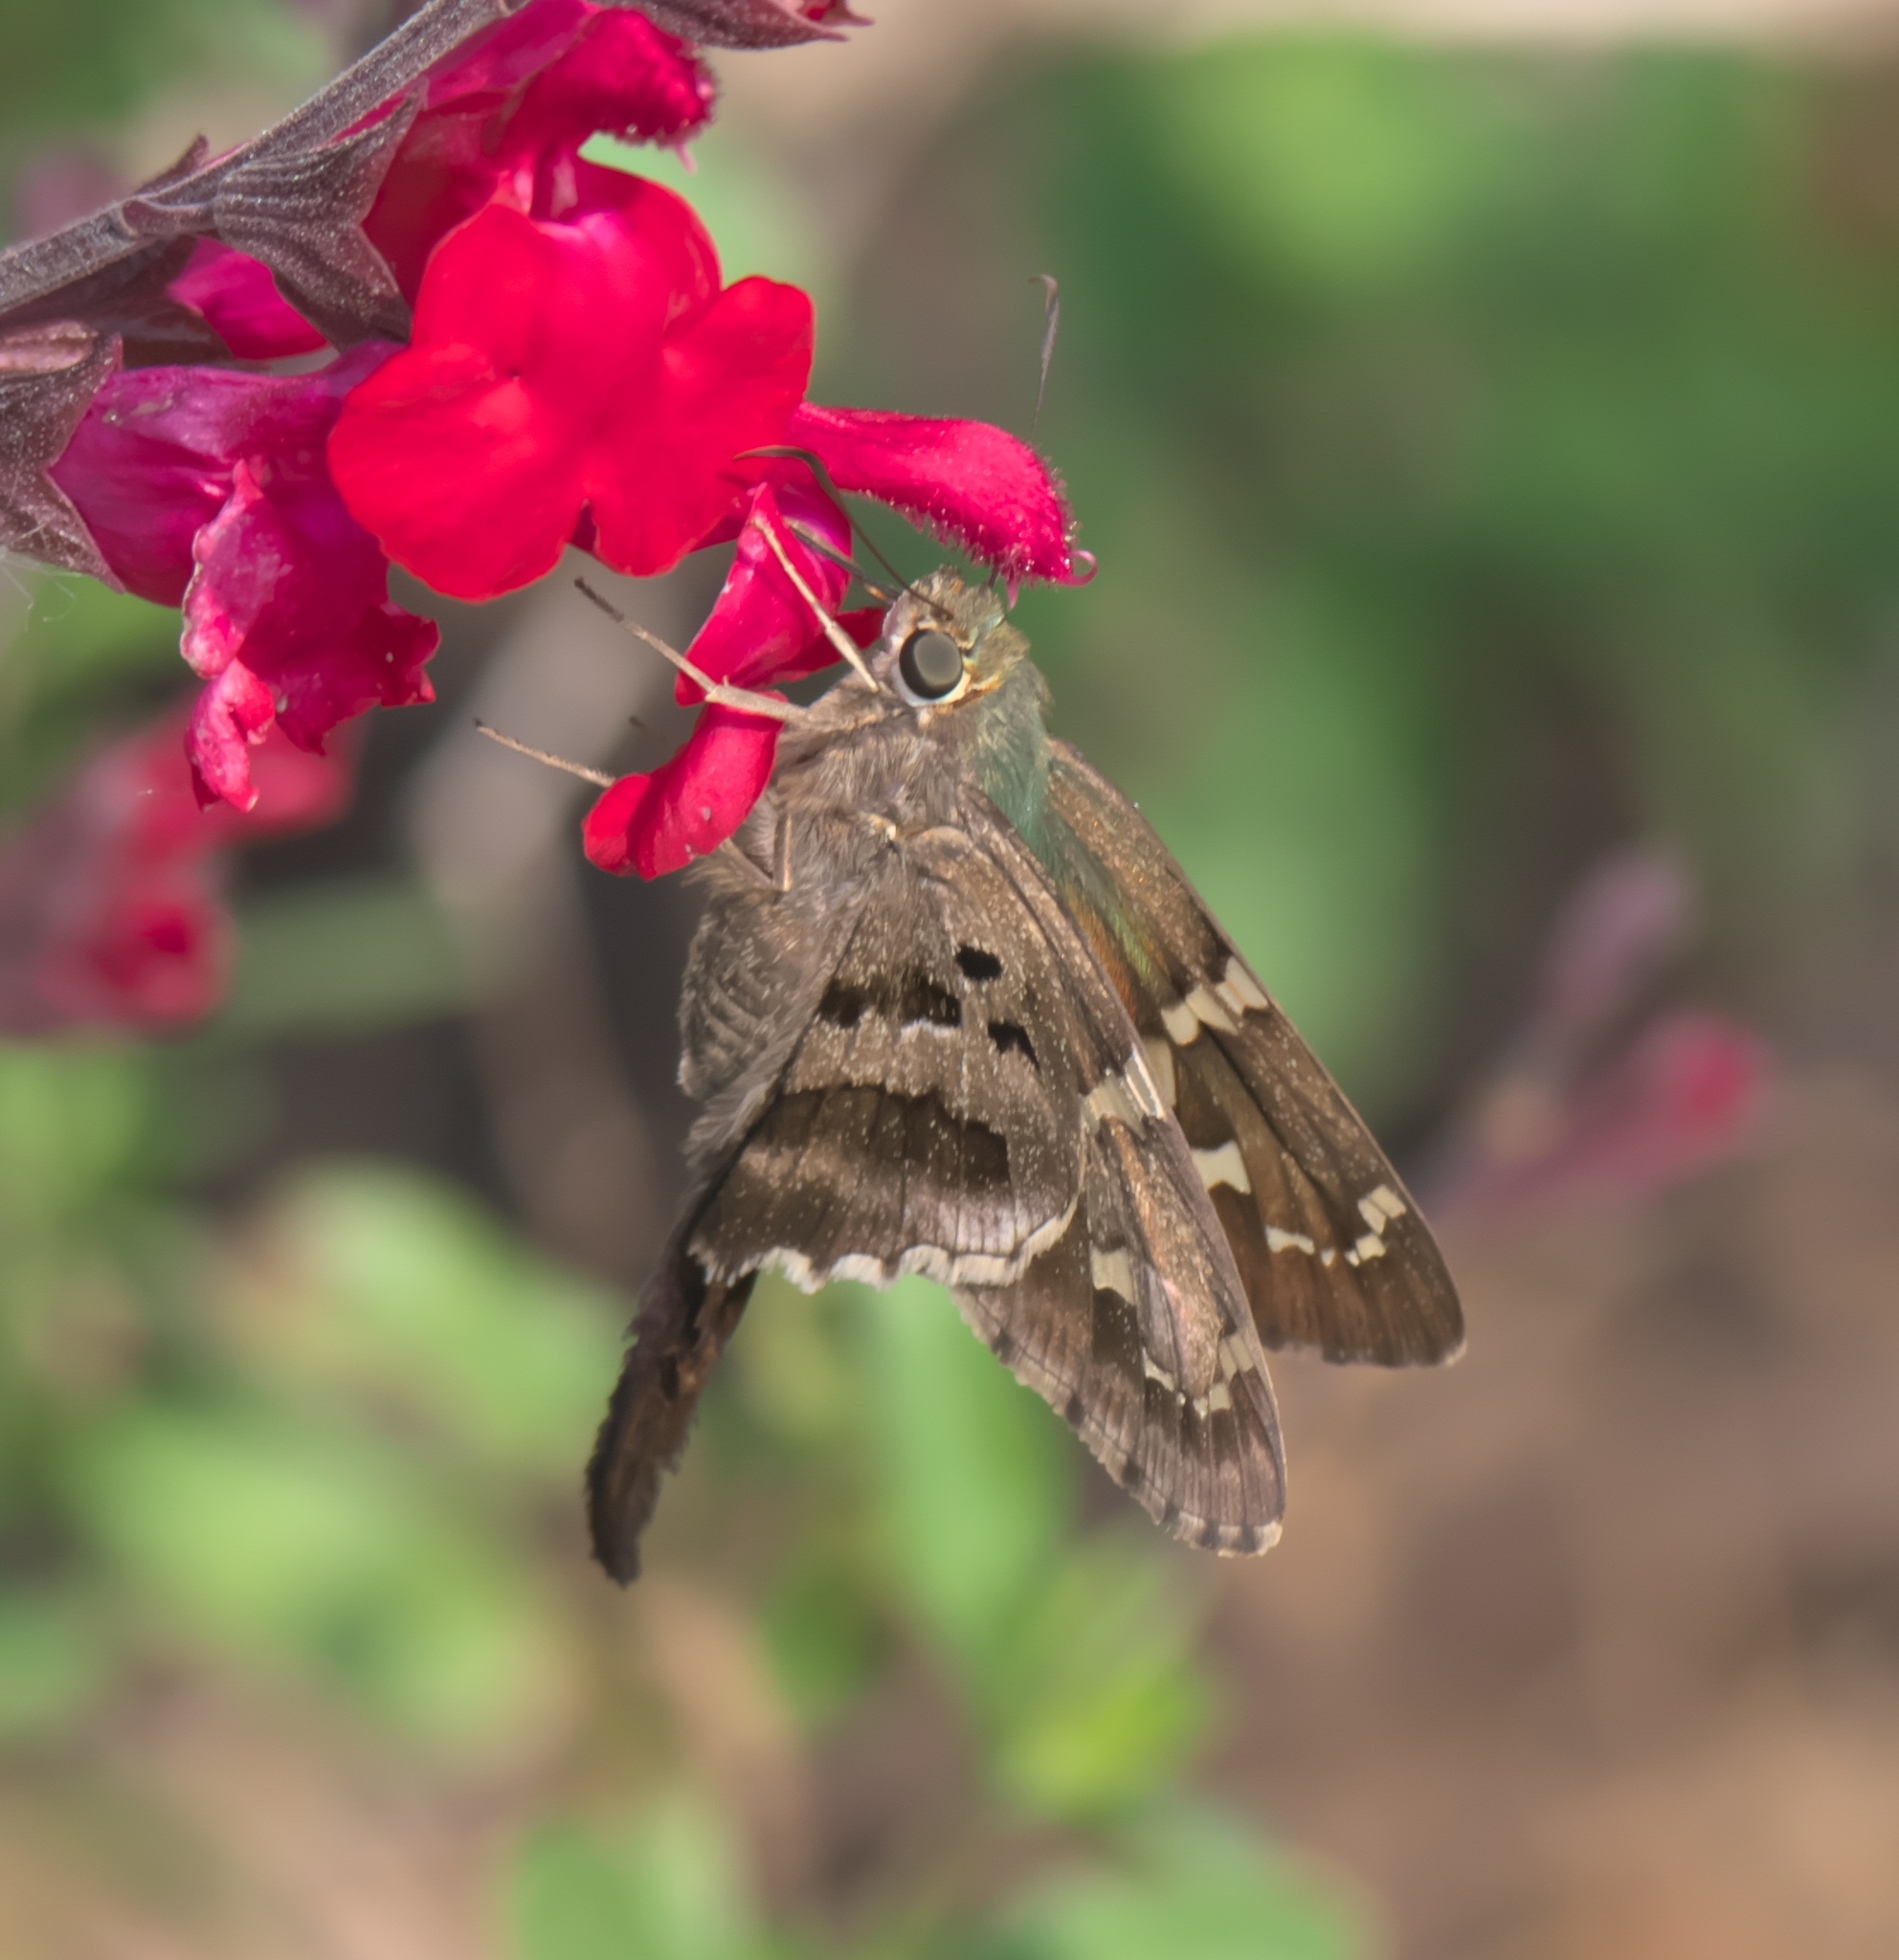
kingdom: Animalia
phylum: Arthropoda
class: Insecta
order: Lepidoptera
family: Hesperiidae
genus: Urbanus
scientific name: Urbanus proteus
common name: Long-tailed skipper
